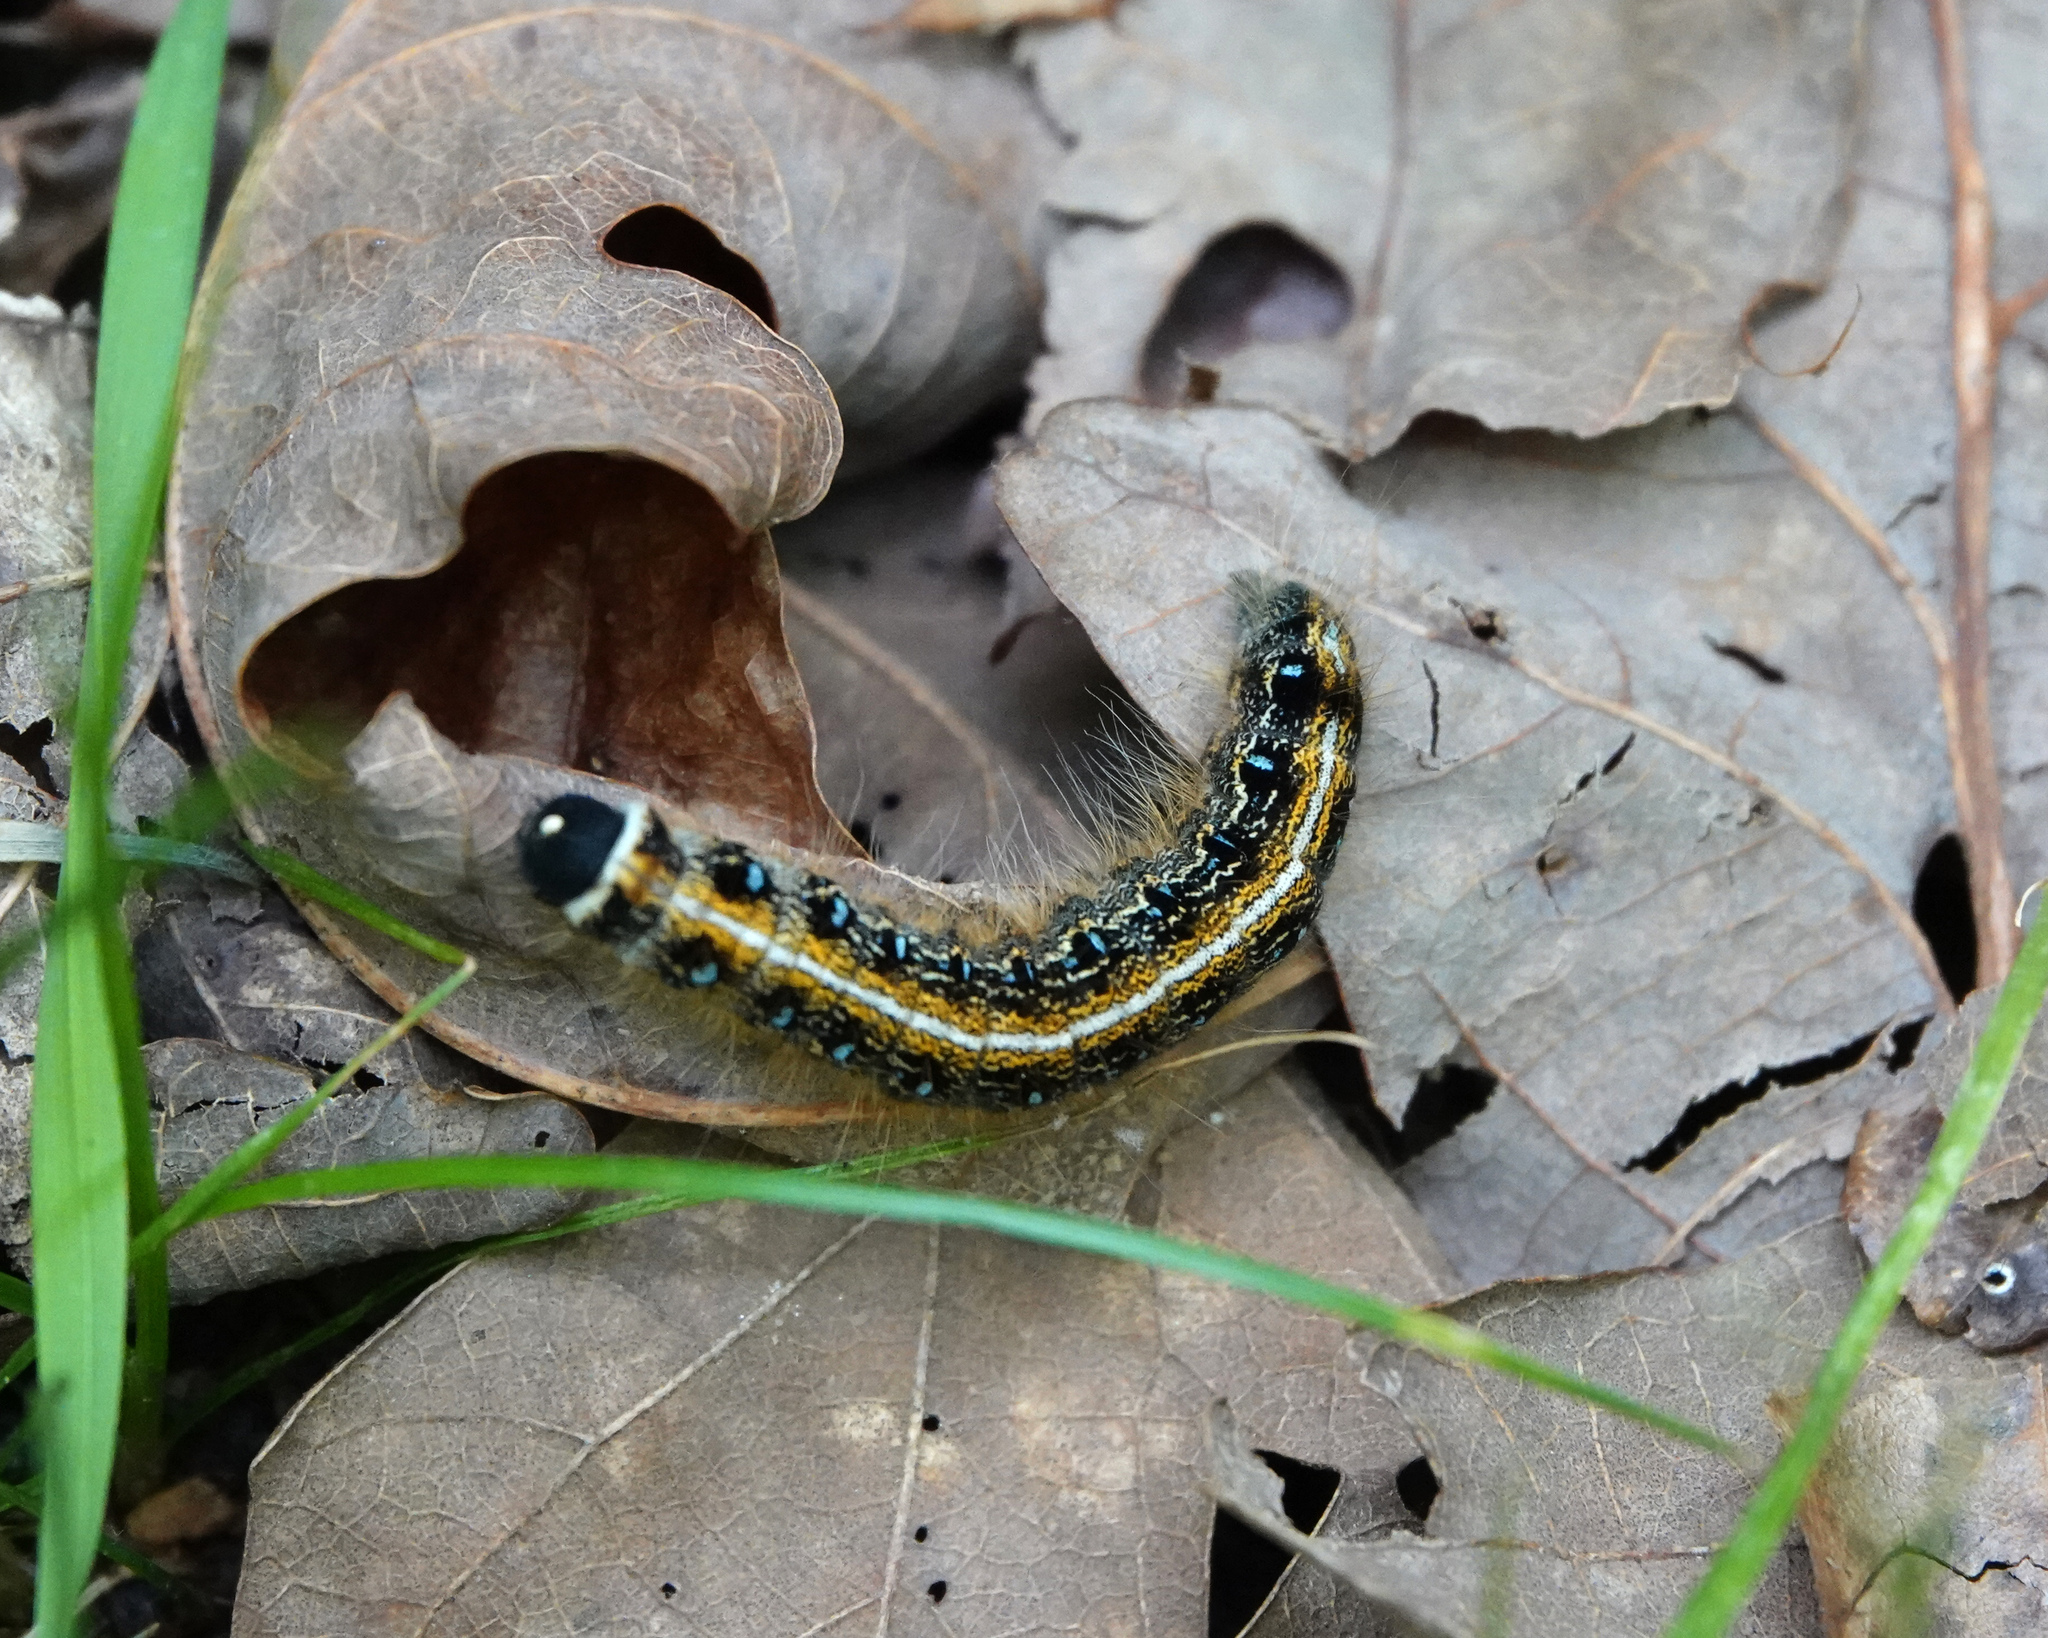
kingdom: Animalia
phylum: Arthropoda
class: Insecta
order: Lepidoptera
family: Lasiocampidae
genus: Malacosoma
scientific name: Malacosoma americana
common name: Eastern tent caterpillar moth
